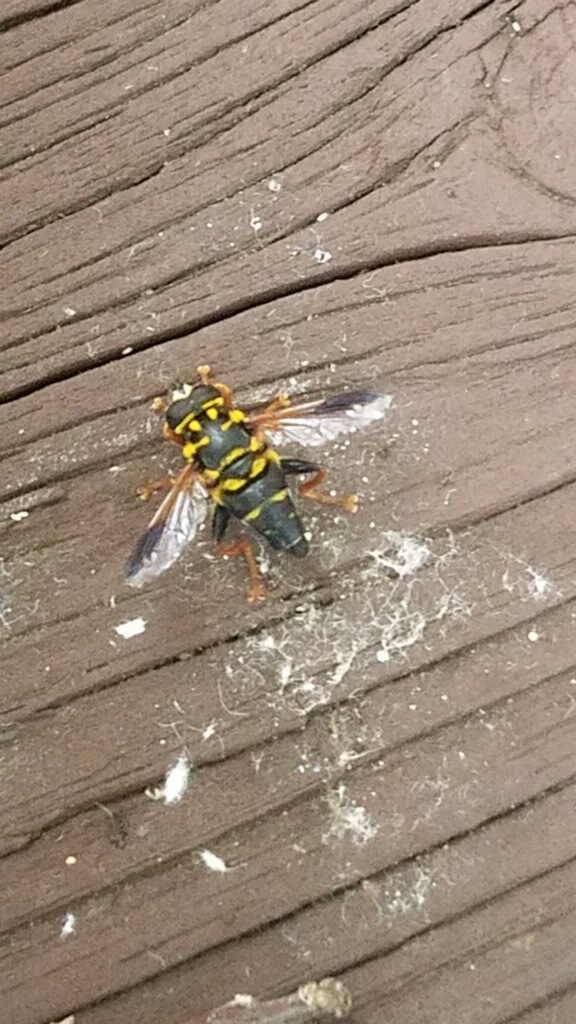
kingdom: Animalia
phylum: Arthropoda
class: Insecta
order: Diptera
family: Syrphidae
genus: Meromacrus
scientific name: Meromacrus acutus
